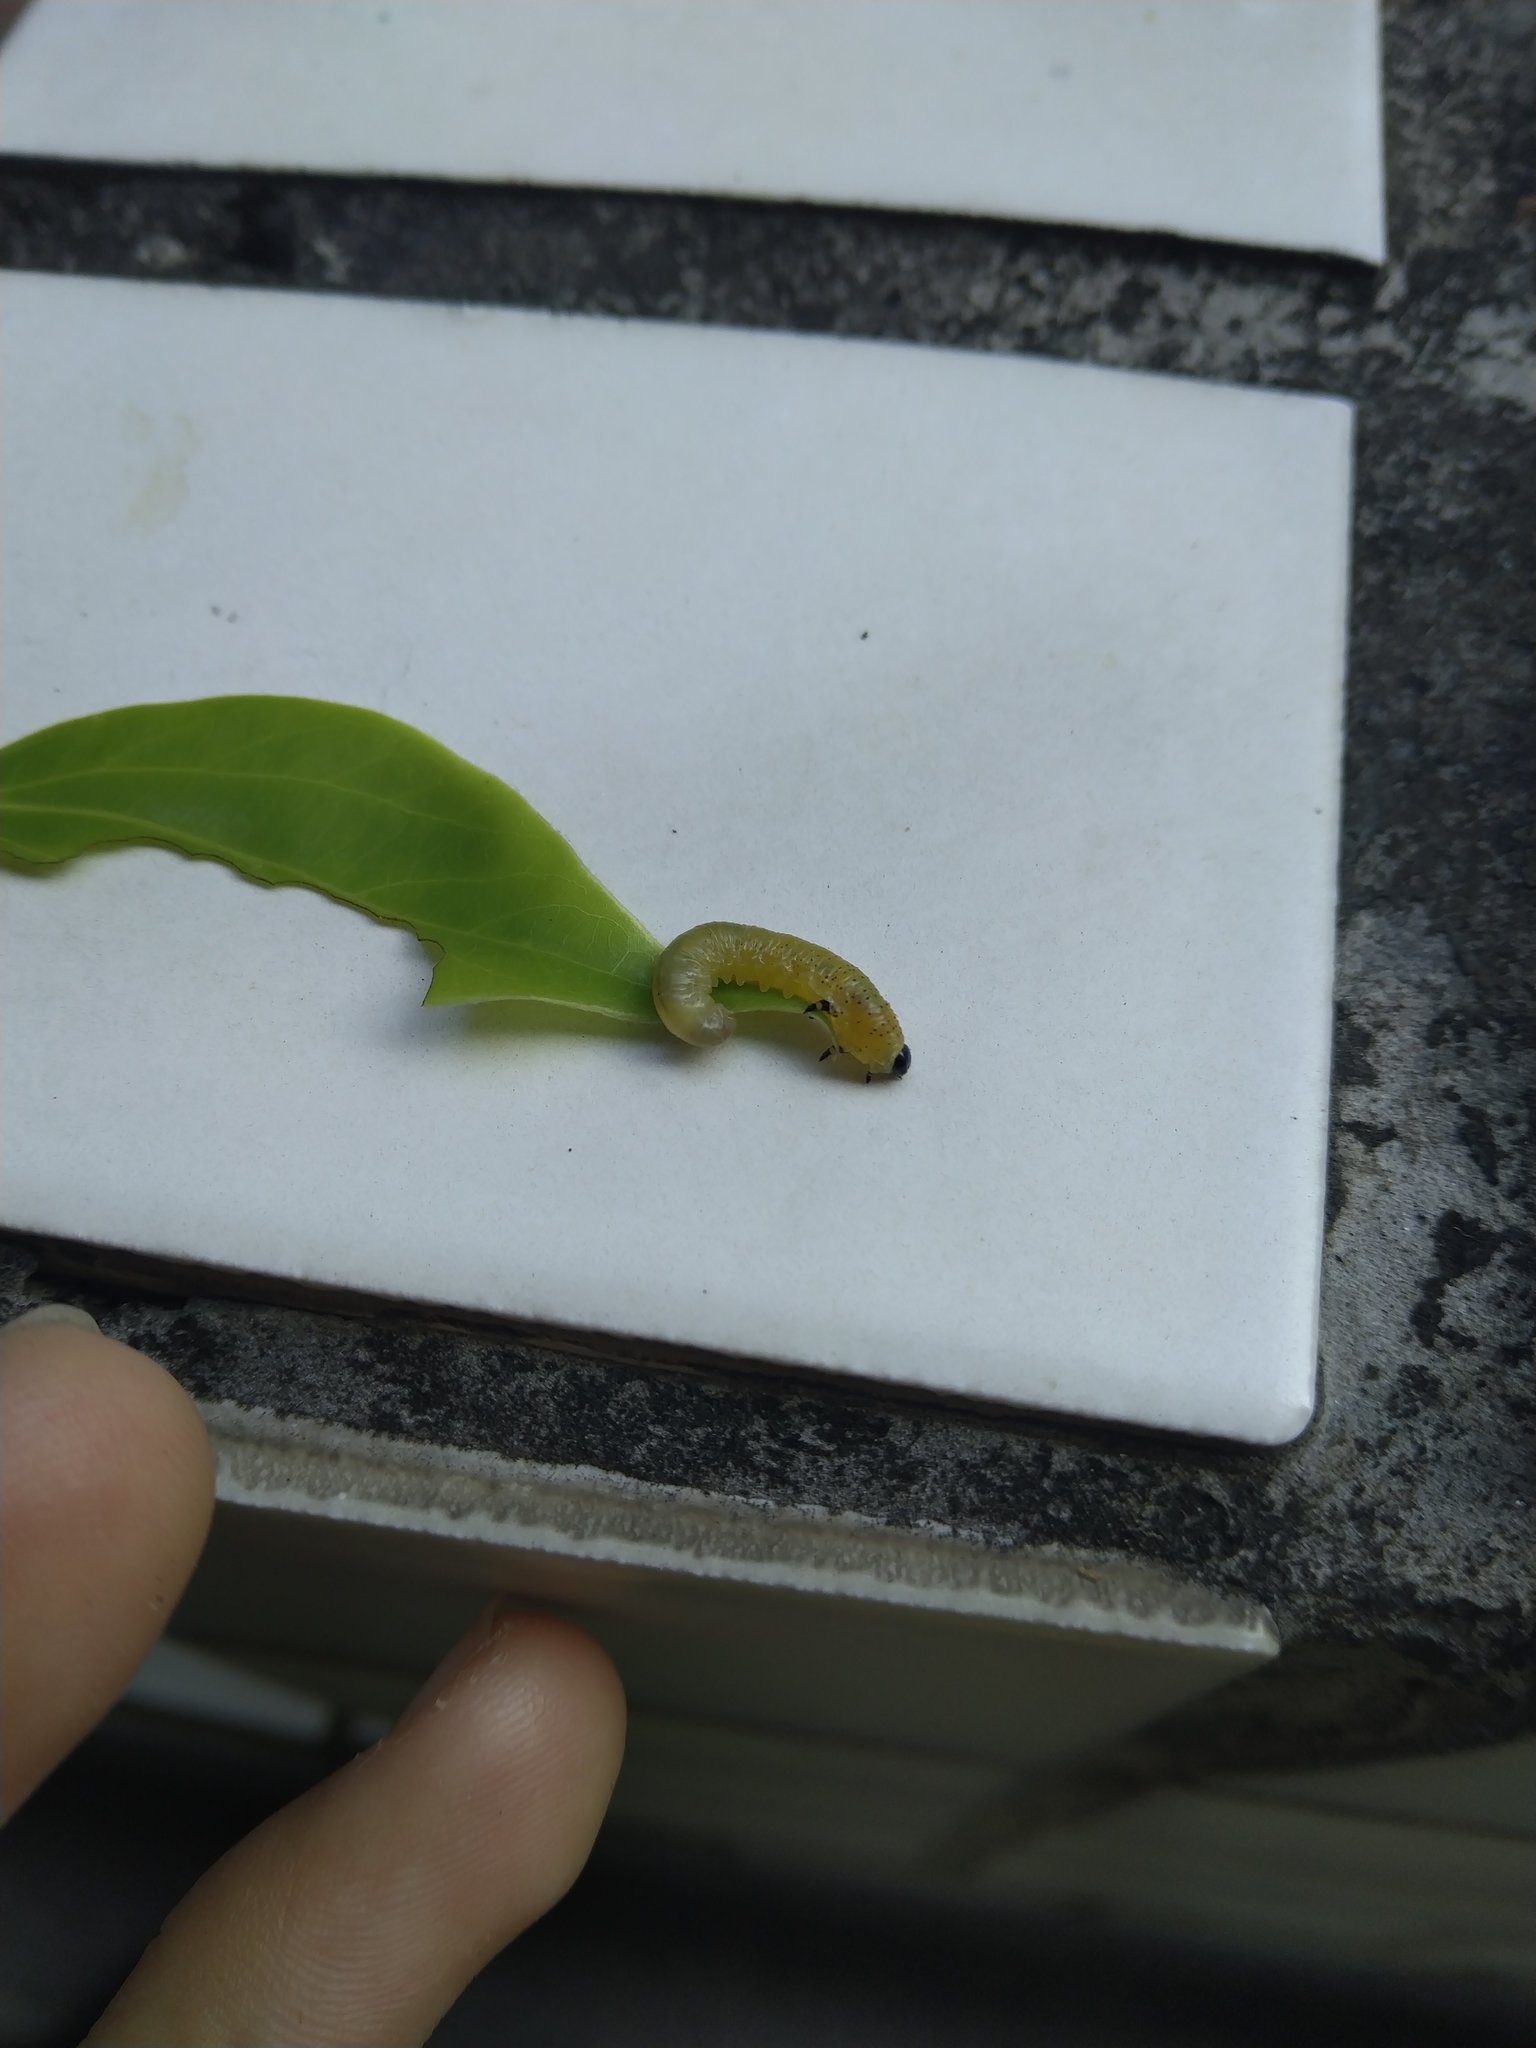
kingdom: Animalia
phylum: Arthropoda
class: Insecta
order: Hymenoptera
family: Tenthredinidae
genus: Moricella
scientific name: Moricella rufonota
